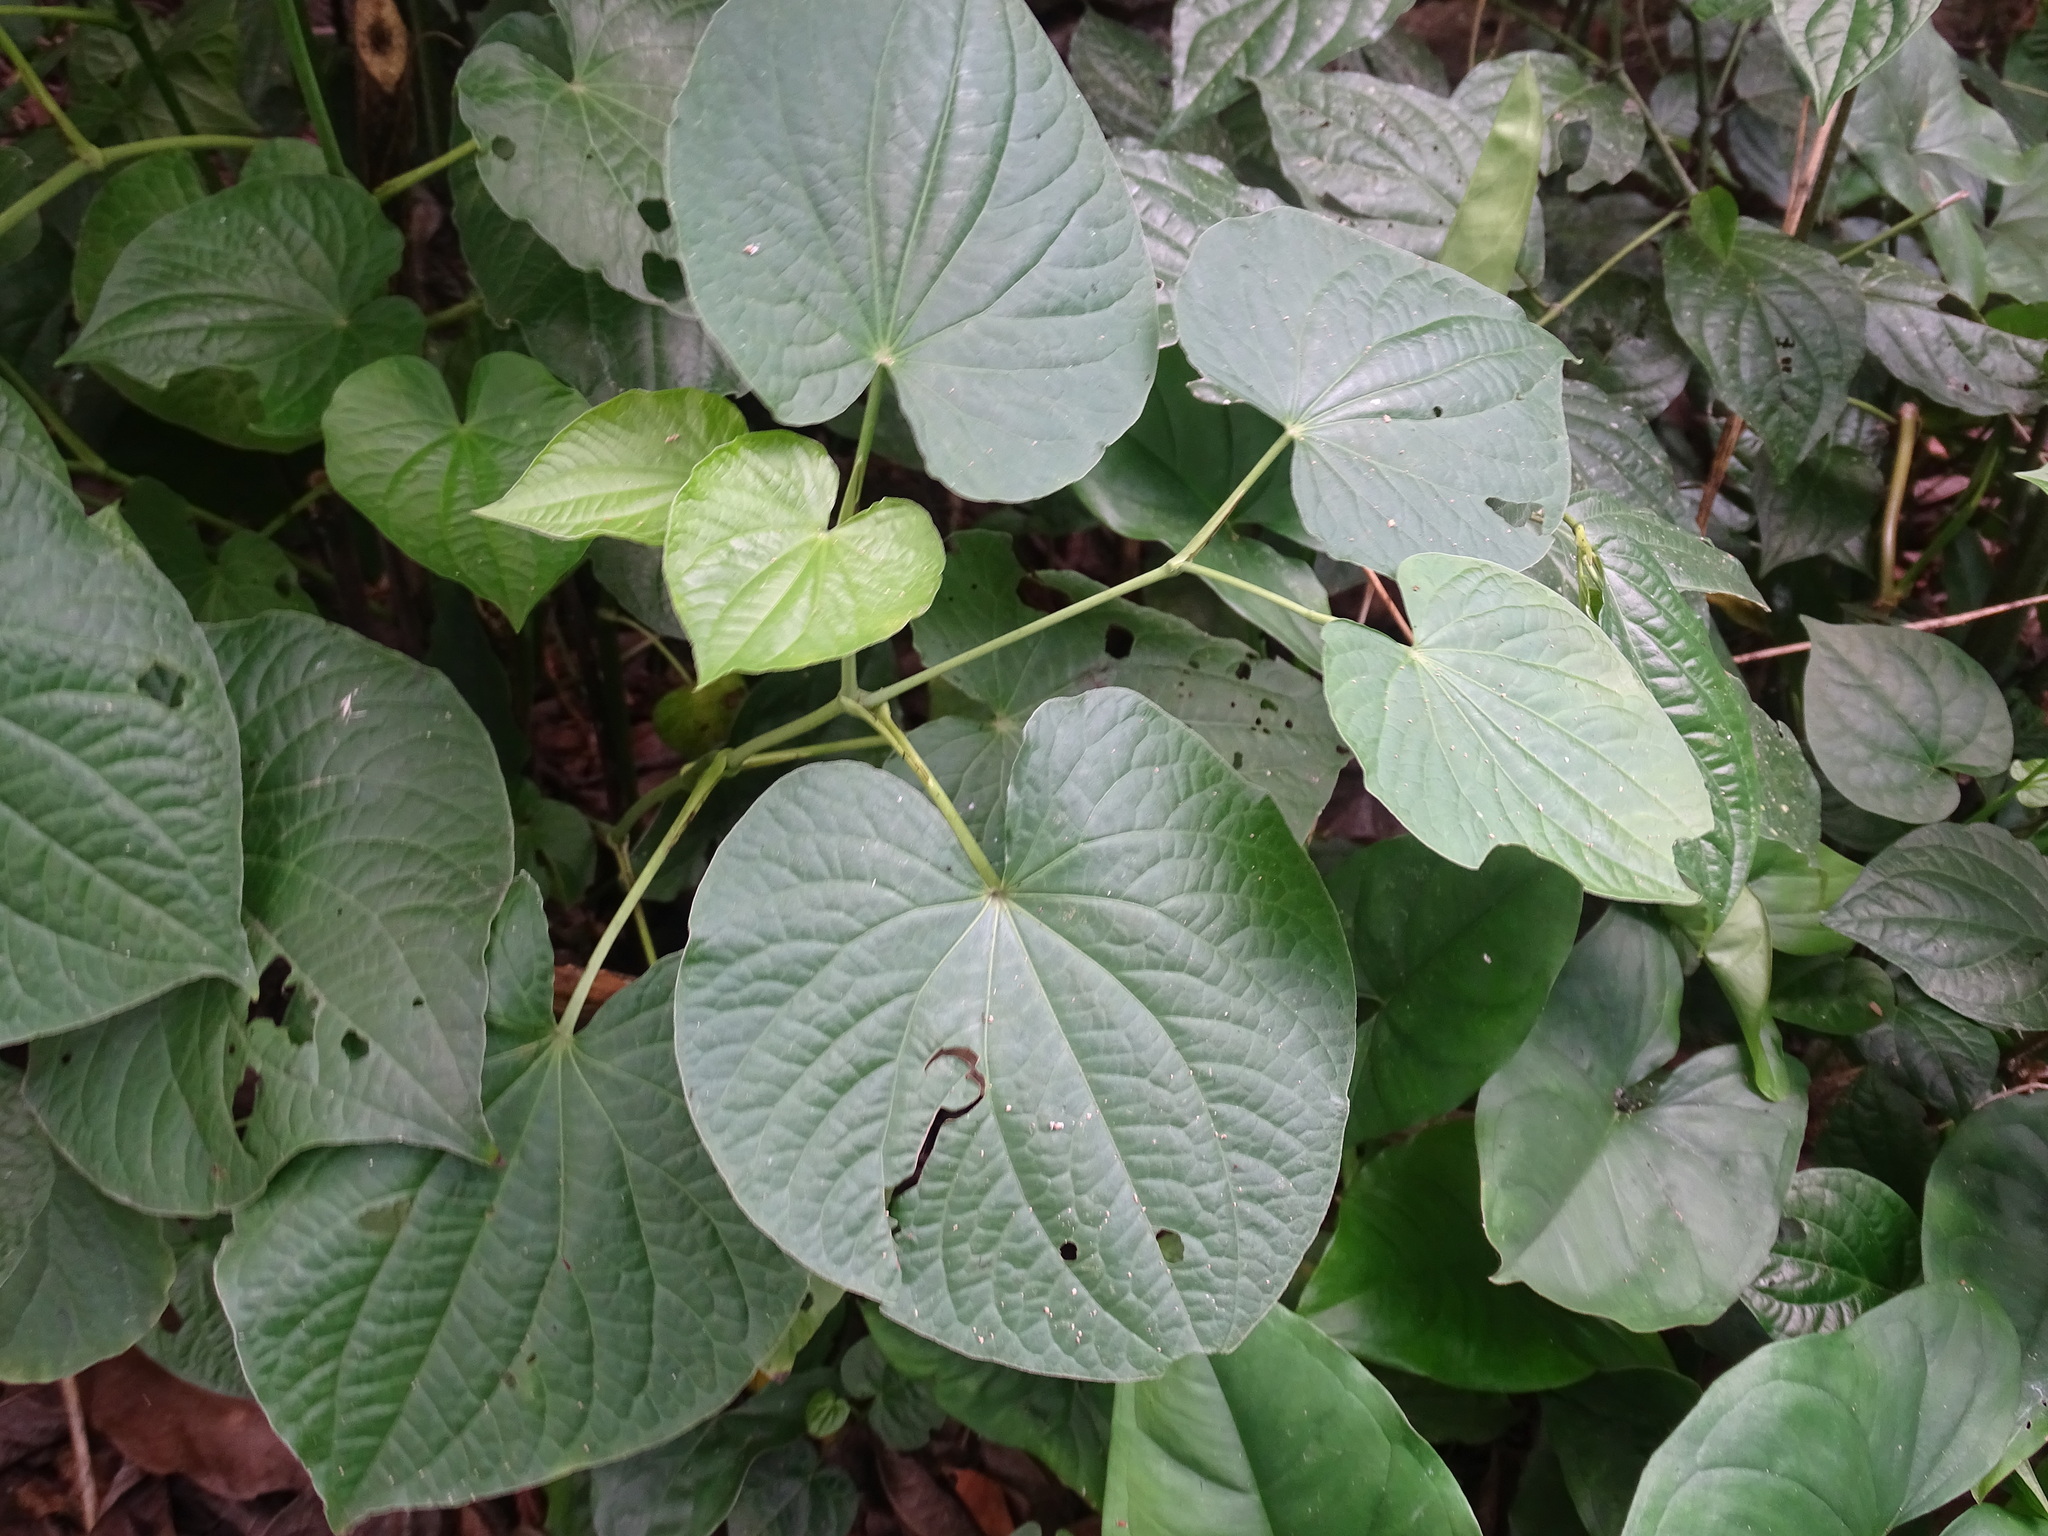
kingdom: Plantae
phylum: Tracheophyta
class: Magnoliopsida
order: Piperales
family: Piperaceae
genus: Piper
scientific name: Piper marginatum
